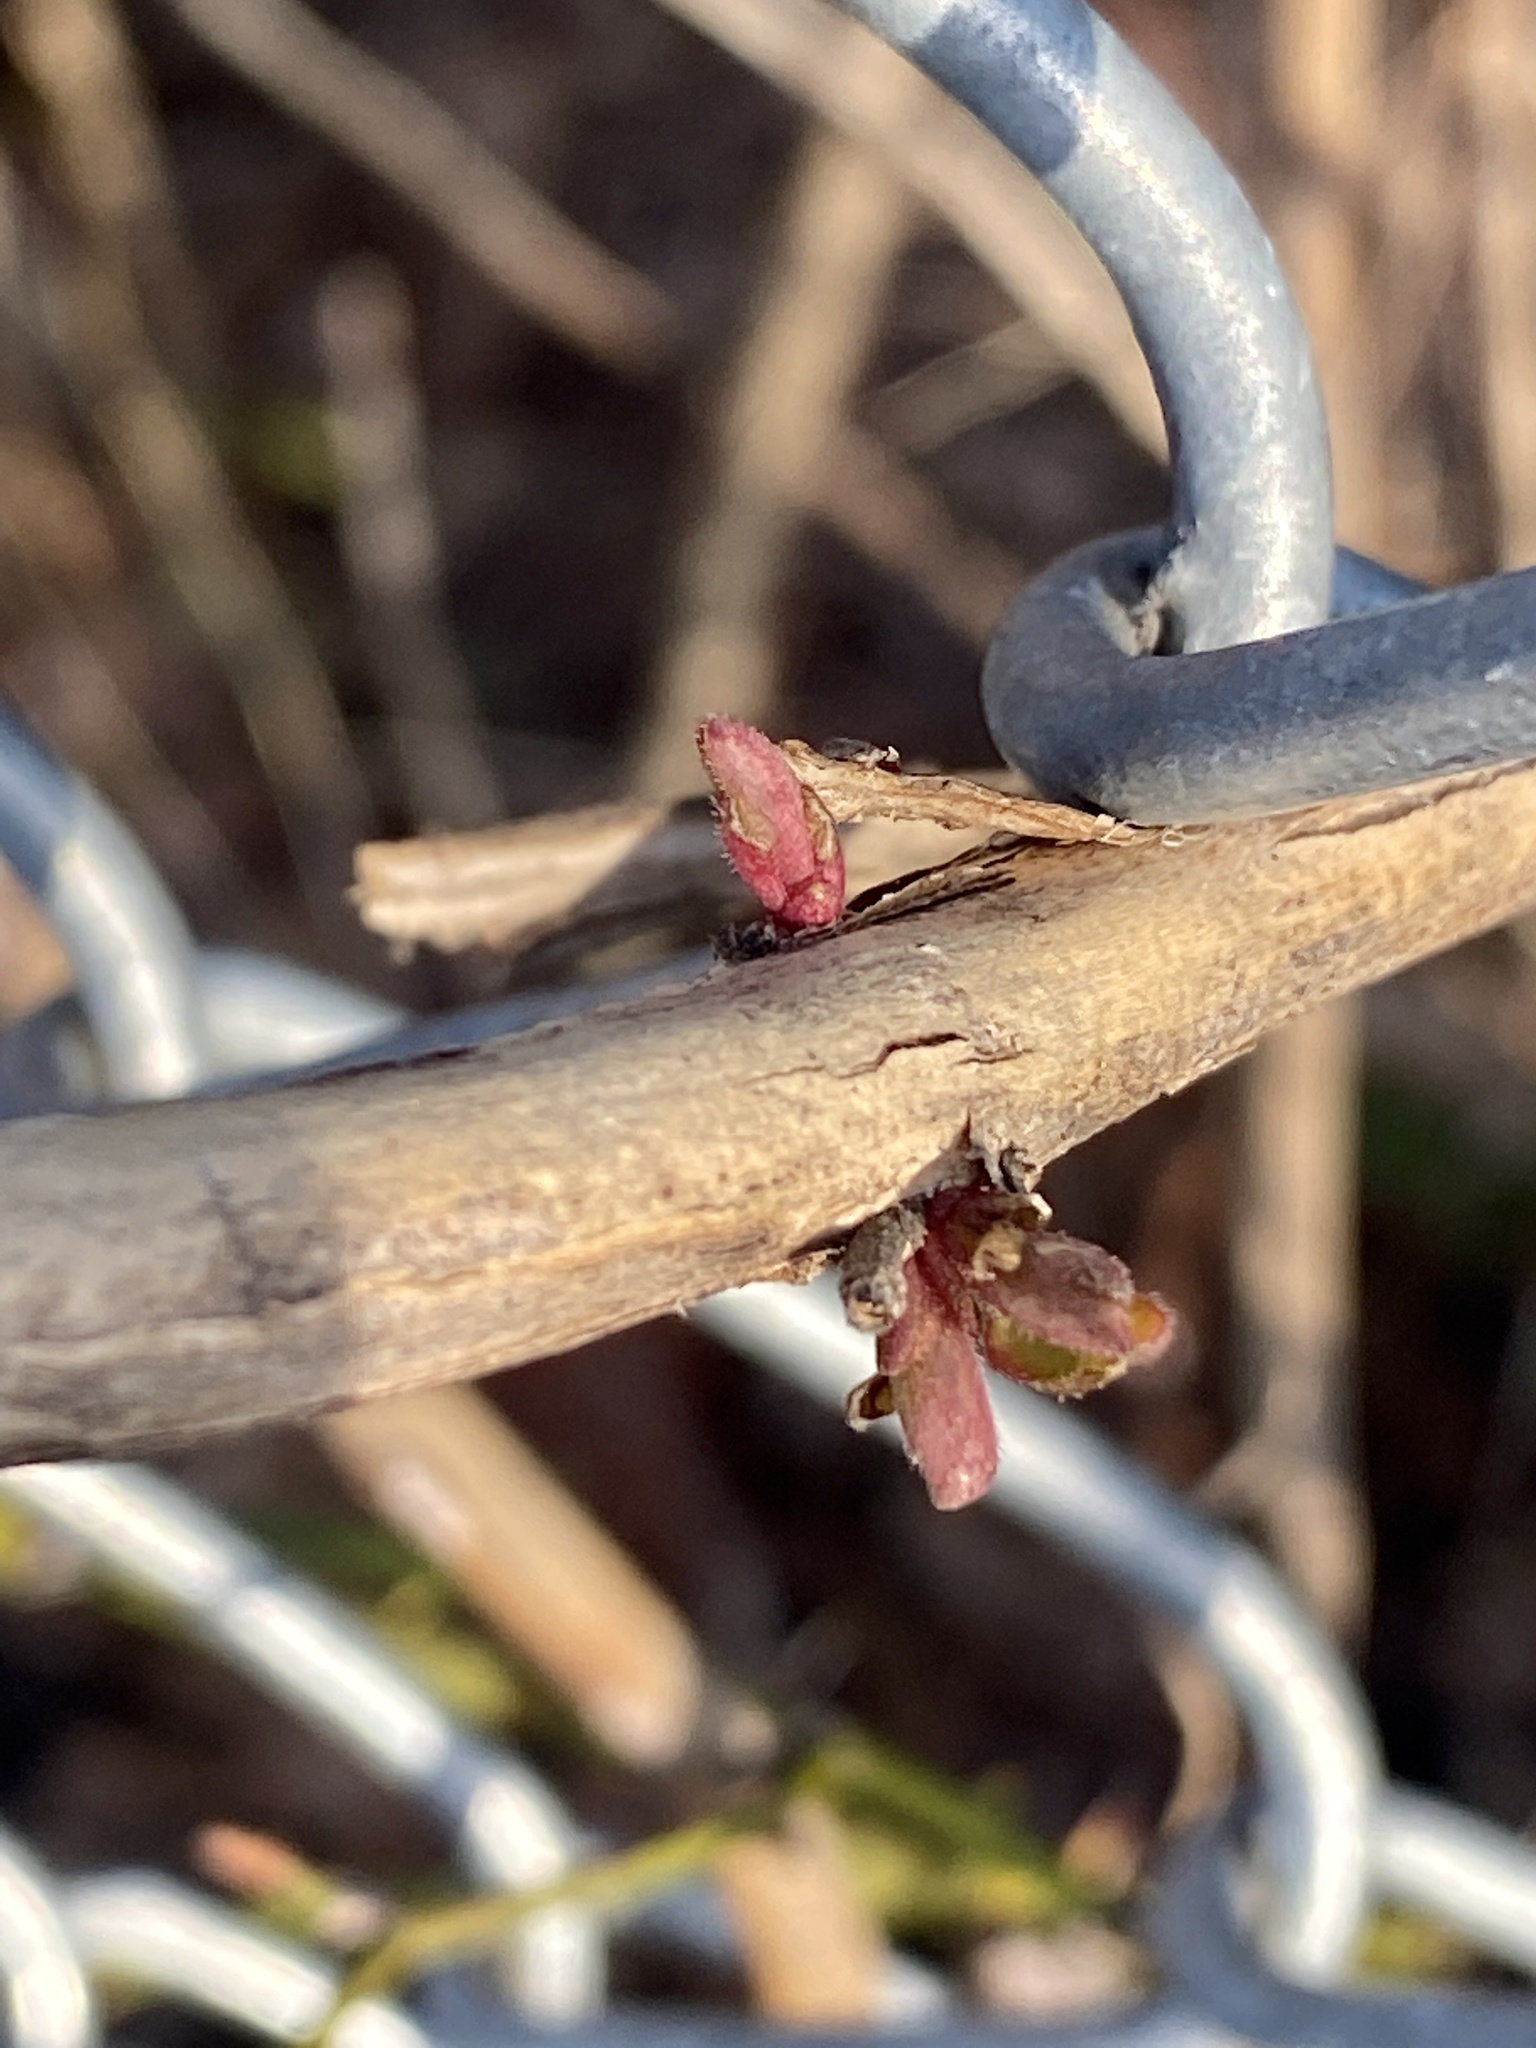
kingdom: Plantae
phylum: Tracheophyta
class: Magnoliopsida
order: Dipsacales
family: Caprifoliaceae
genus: Lonicera
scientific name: Lonicera japonica
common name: Japanese honeysuckle
